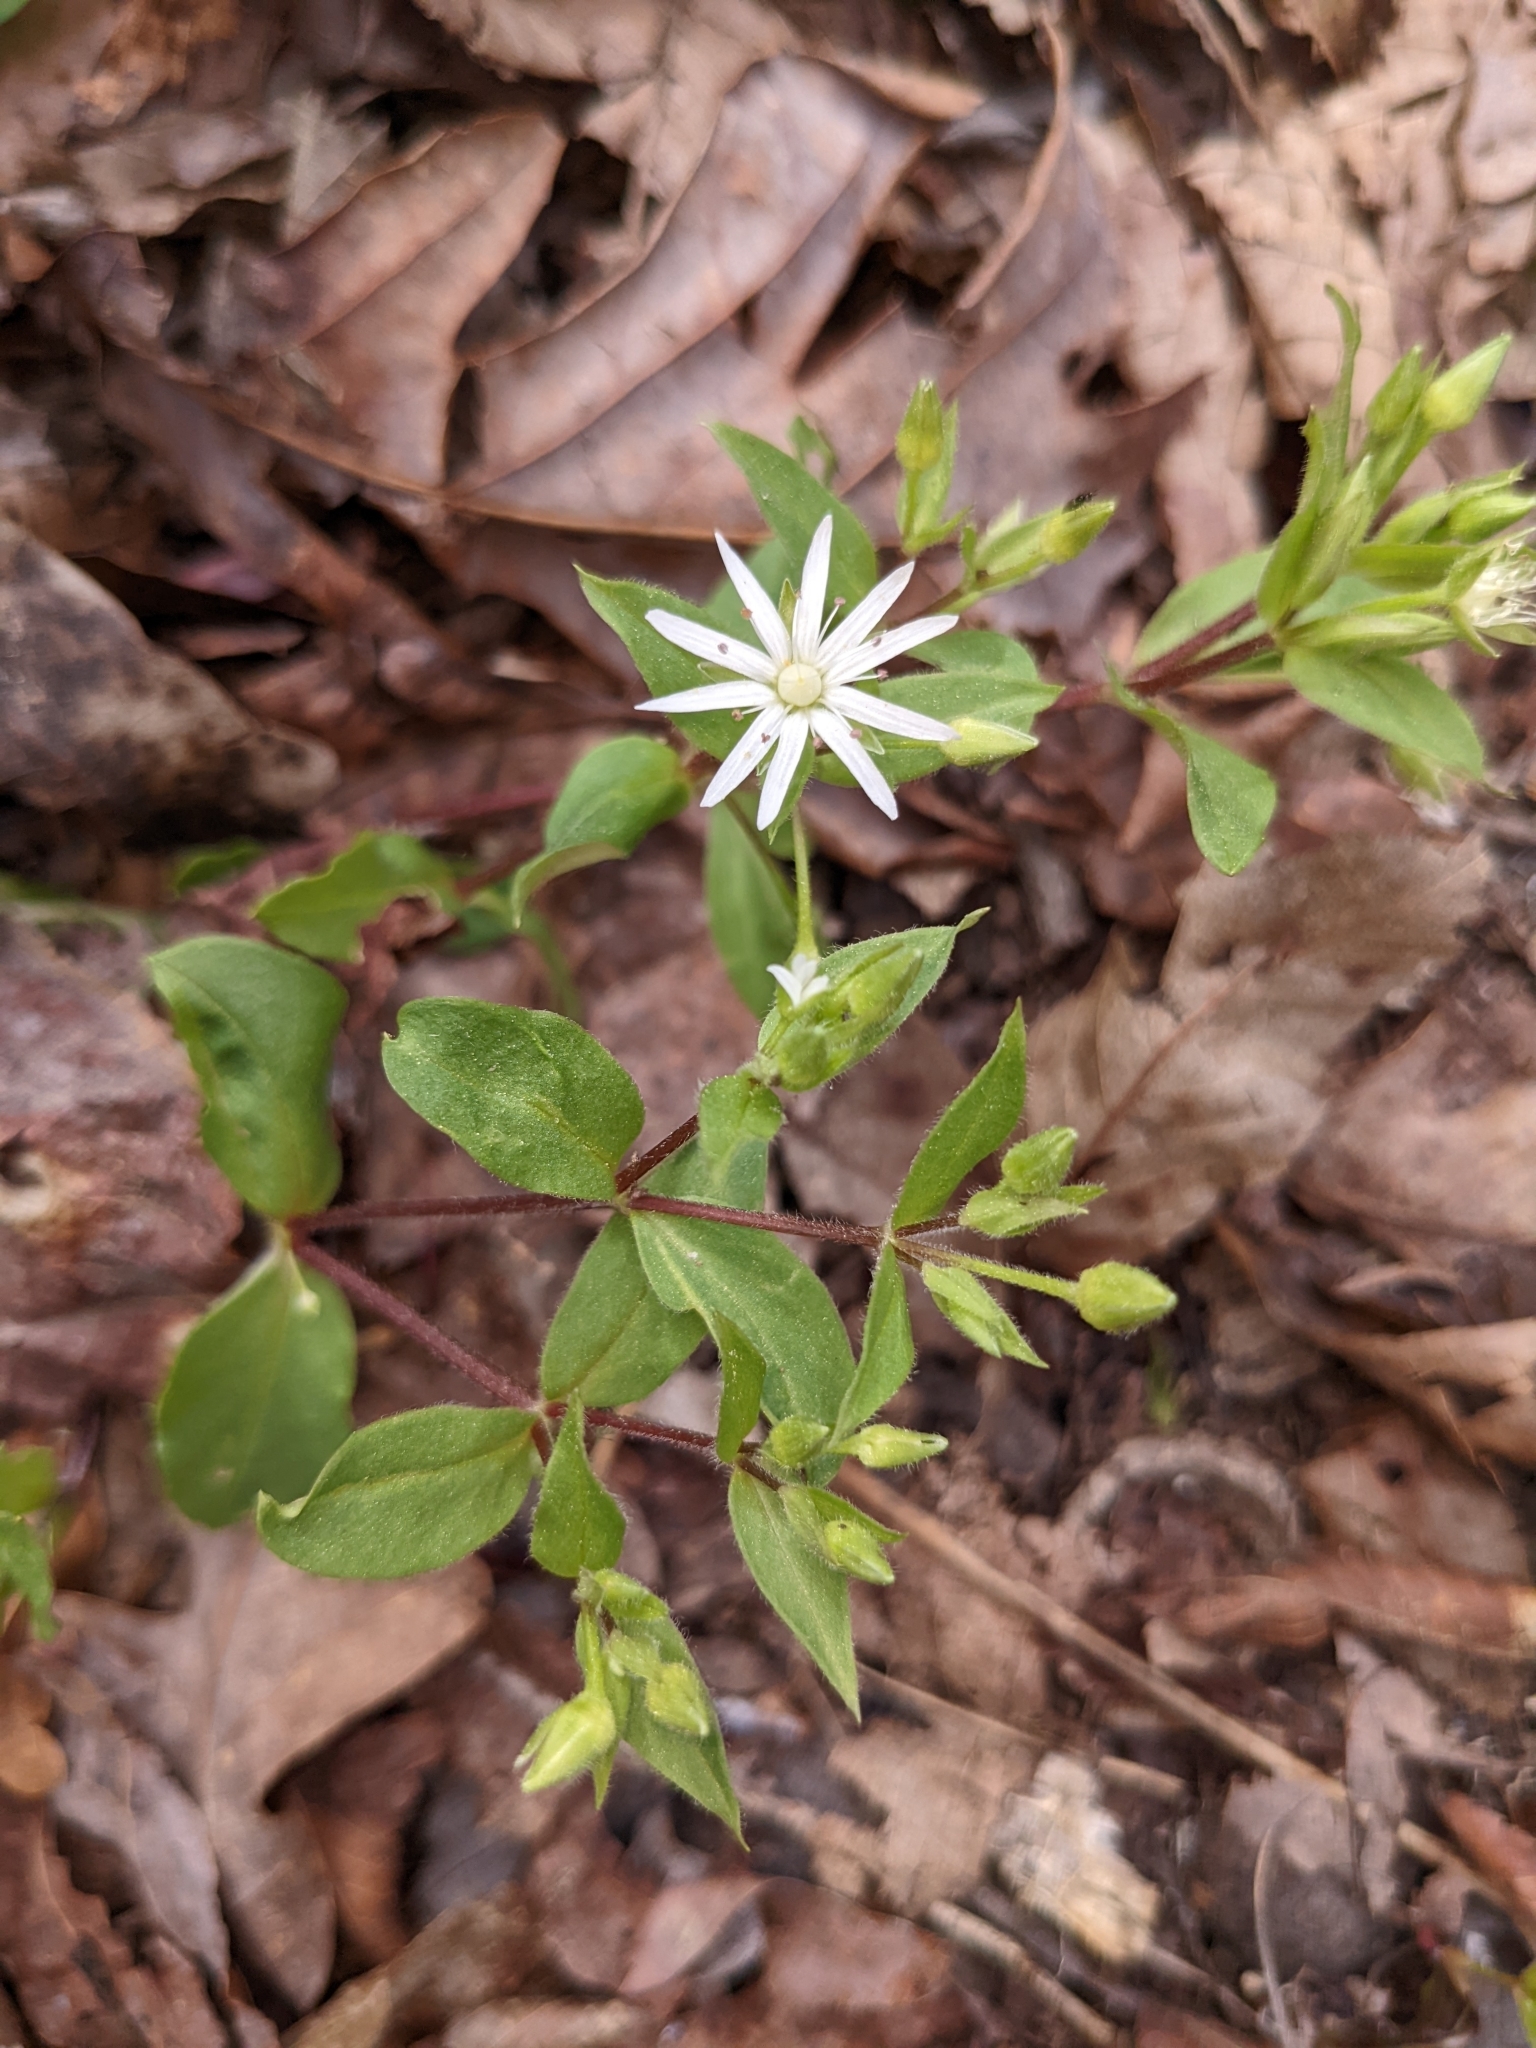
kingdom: Plantae
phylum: Tracheophyta
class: Magnoliopsida
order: Caryophyllales
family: Caryophyllaceae
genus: Stellaria
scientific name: Stellaria pubera
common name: Star chickweed
